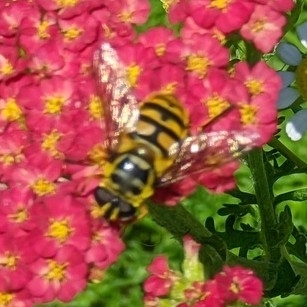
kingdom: Animalia
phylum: Arthropoda
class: Insecta
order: Diptera
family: Syrphidae
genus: Myathropa
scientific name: Myathropa florea
